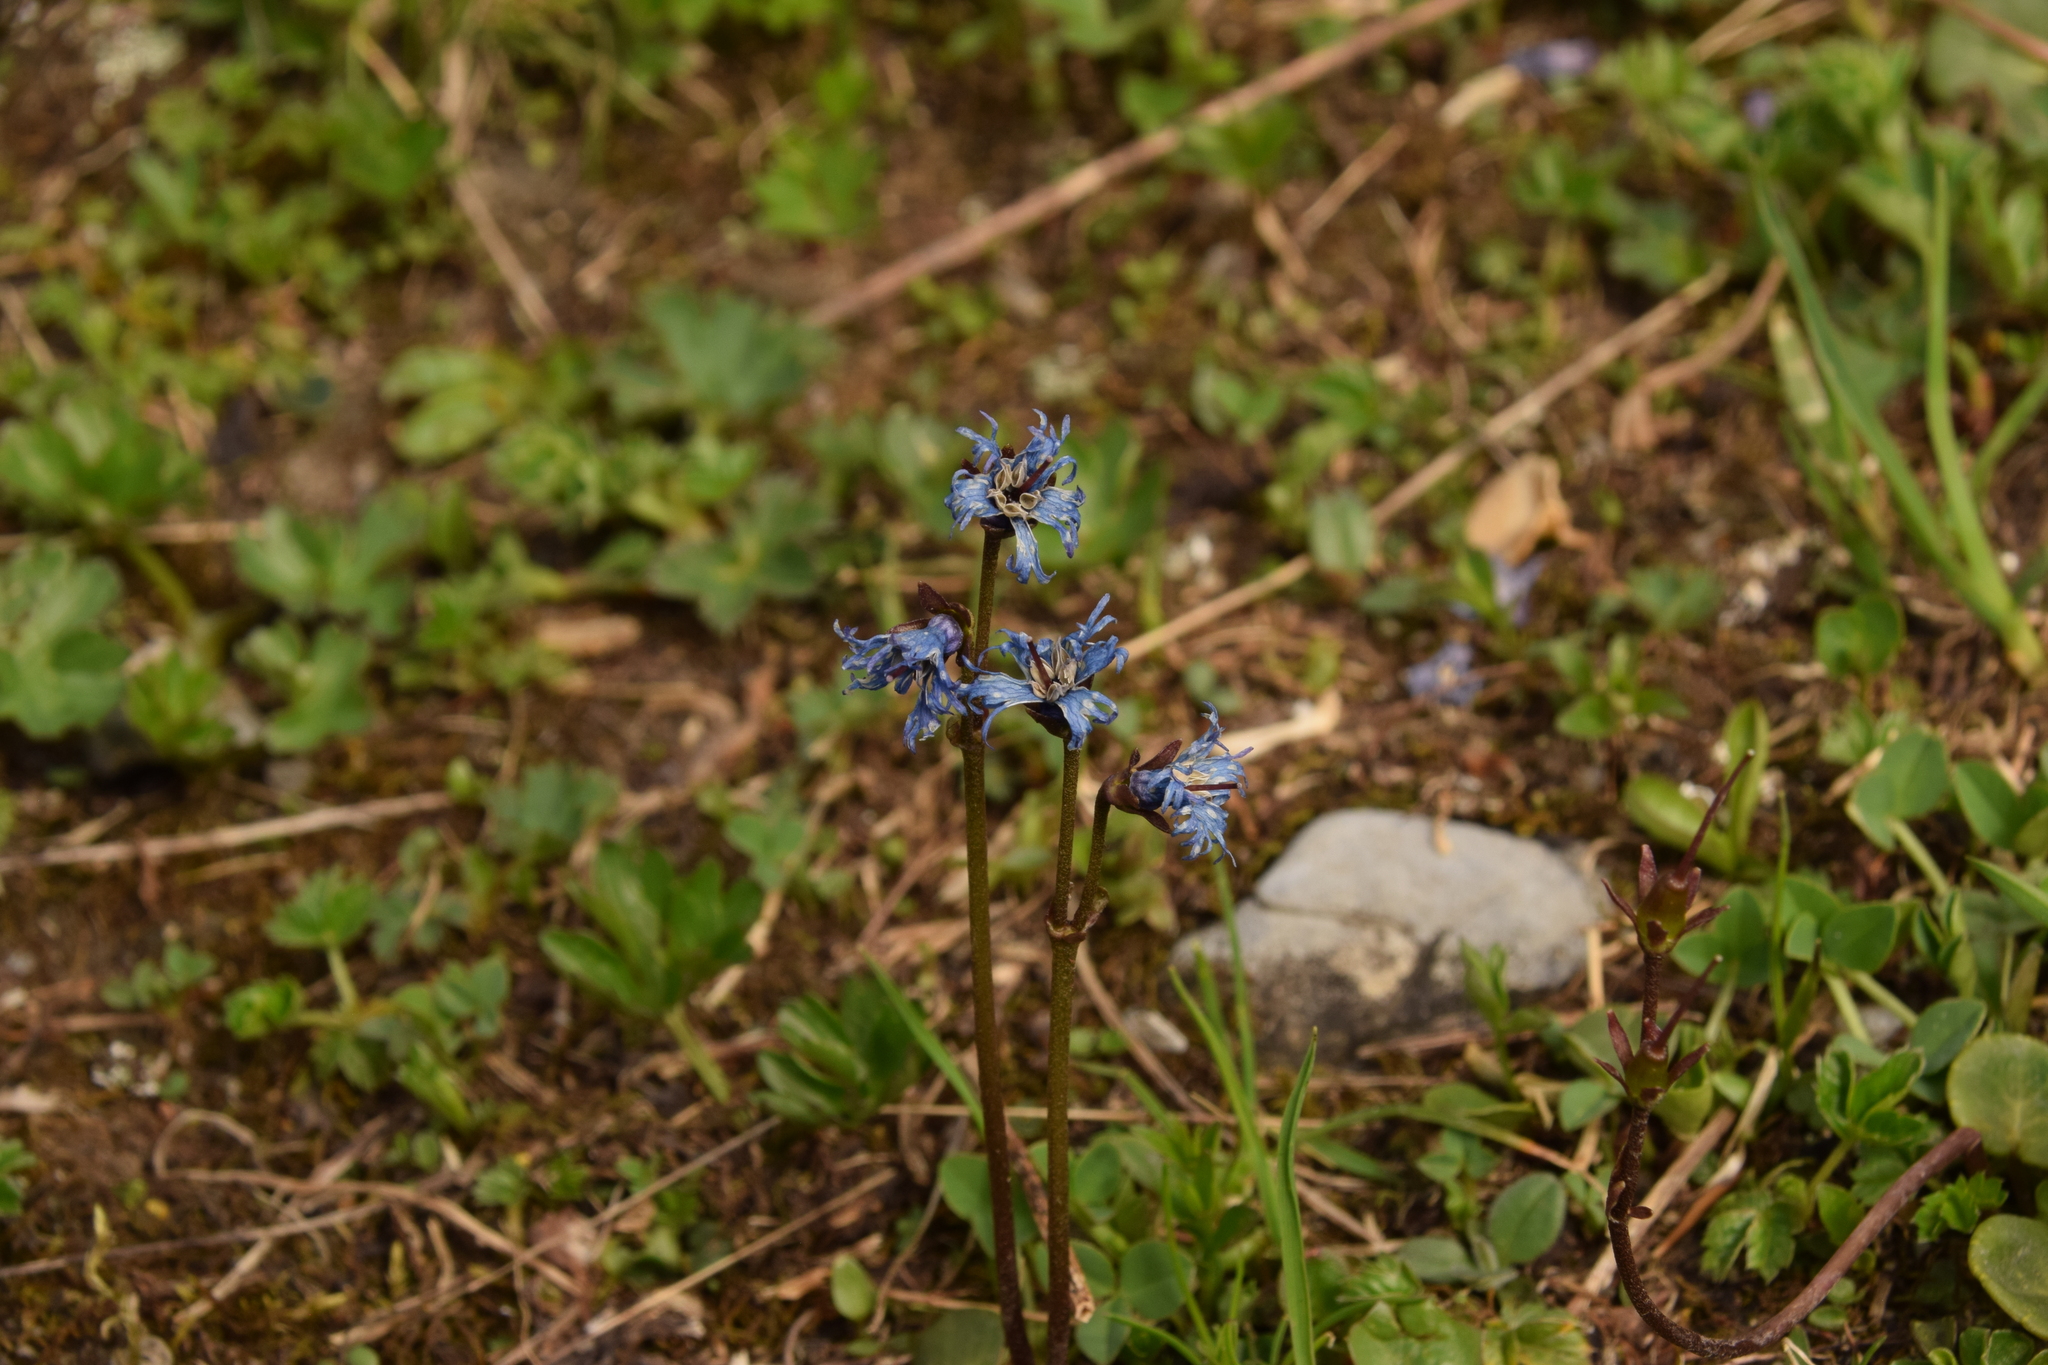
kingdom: Plantae
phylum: Tracheophyta
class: Magnoliopsida
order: Ericales
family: Primulaceae
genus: Soldanella
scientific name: Soldanella alpina
